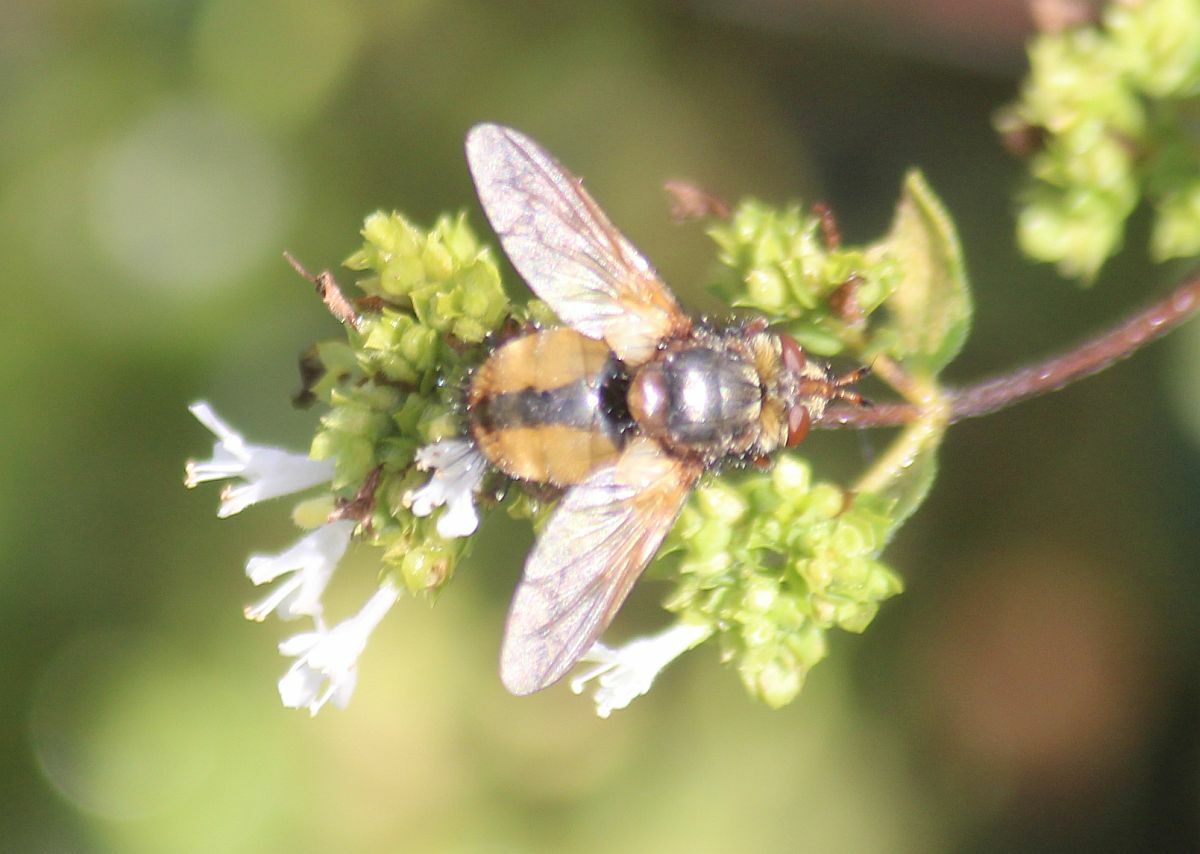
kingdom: Animalia
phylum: Arthropoda
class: Insecta
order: Diptera
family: Tachinidae
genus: Tachina
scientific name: Tachina fera
